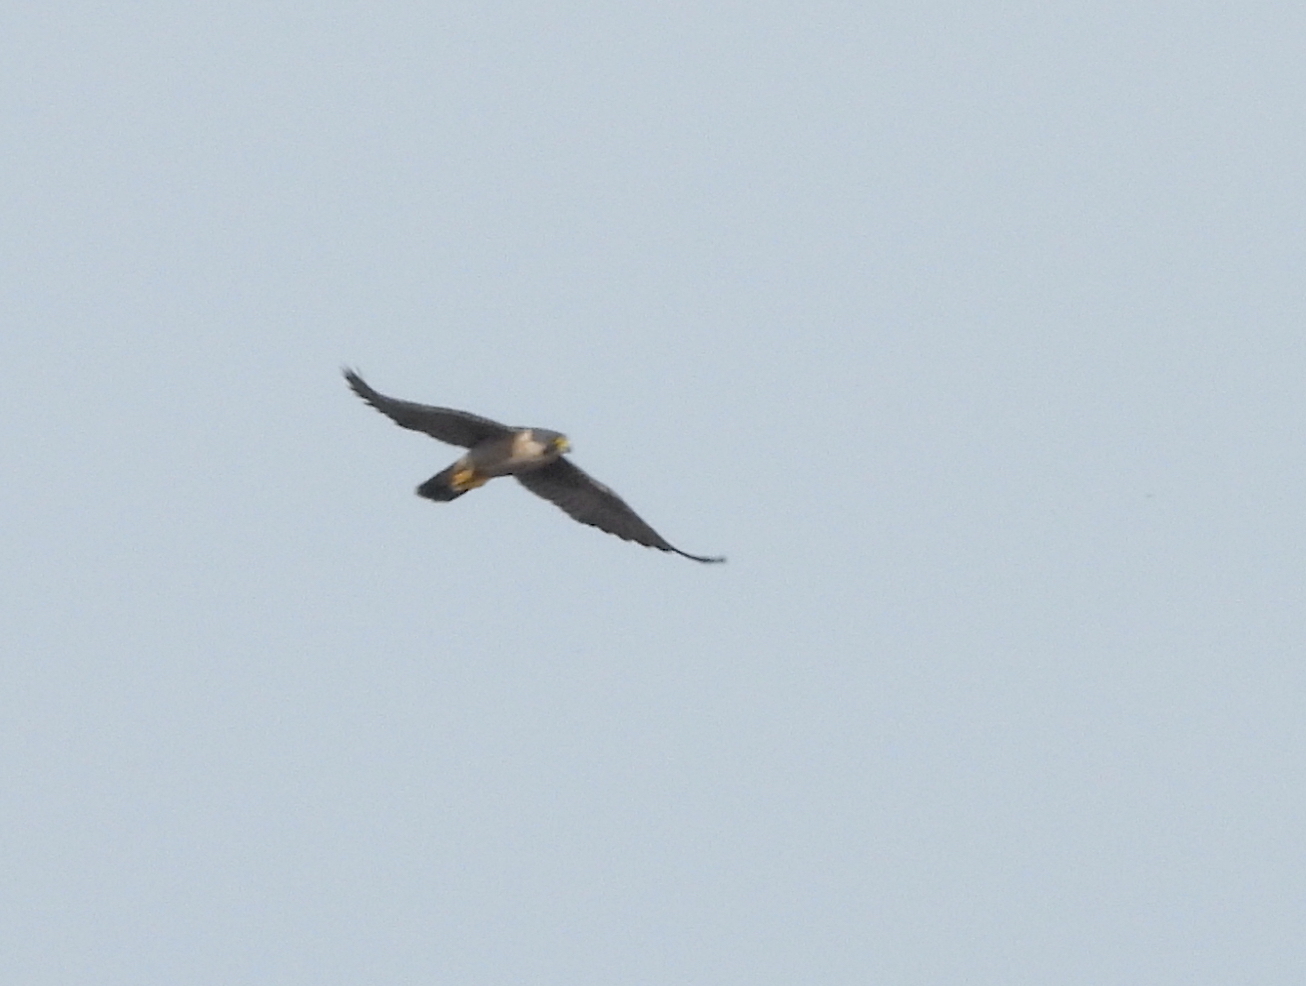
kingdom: Animalia
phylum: Chordata
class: Aves
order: Falconiformes
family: Falconidae
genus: Falco
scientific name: Falco peregrinus
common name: Peregrine falcon
